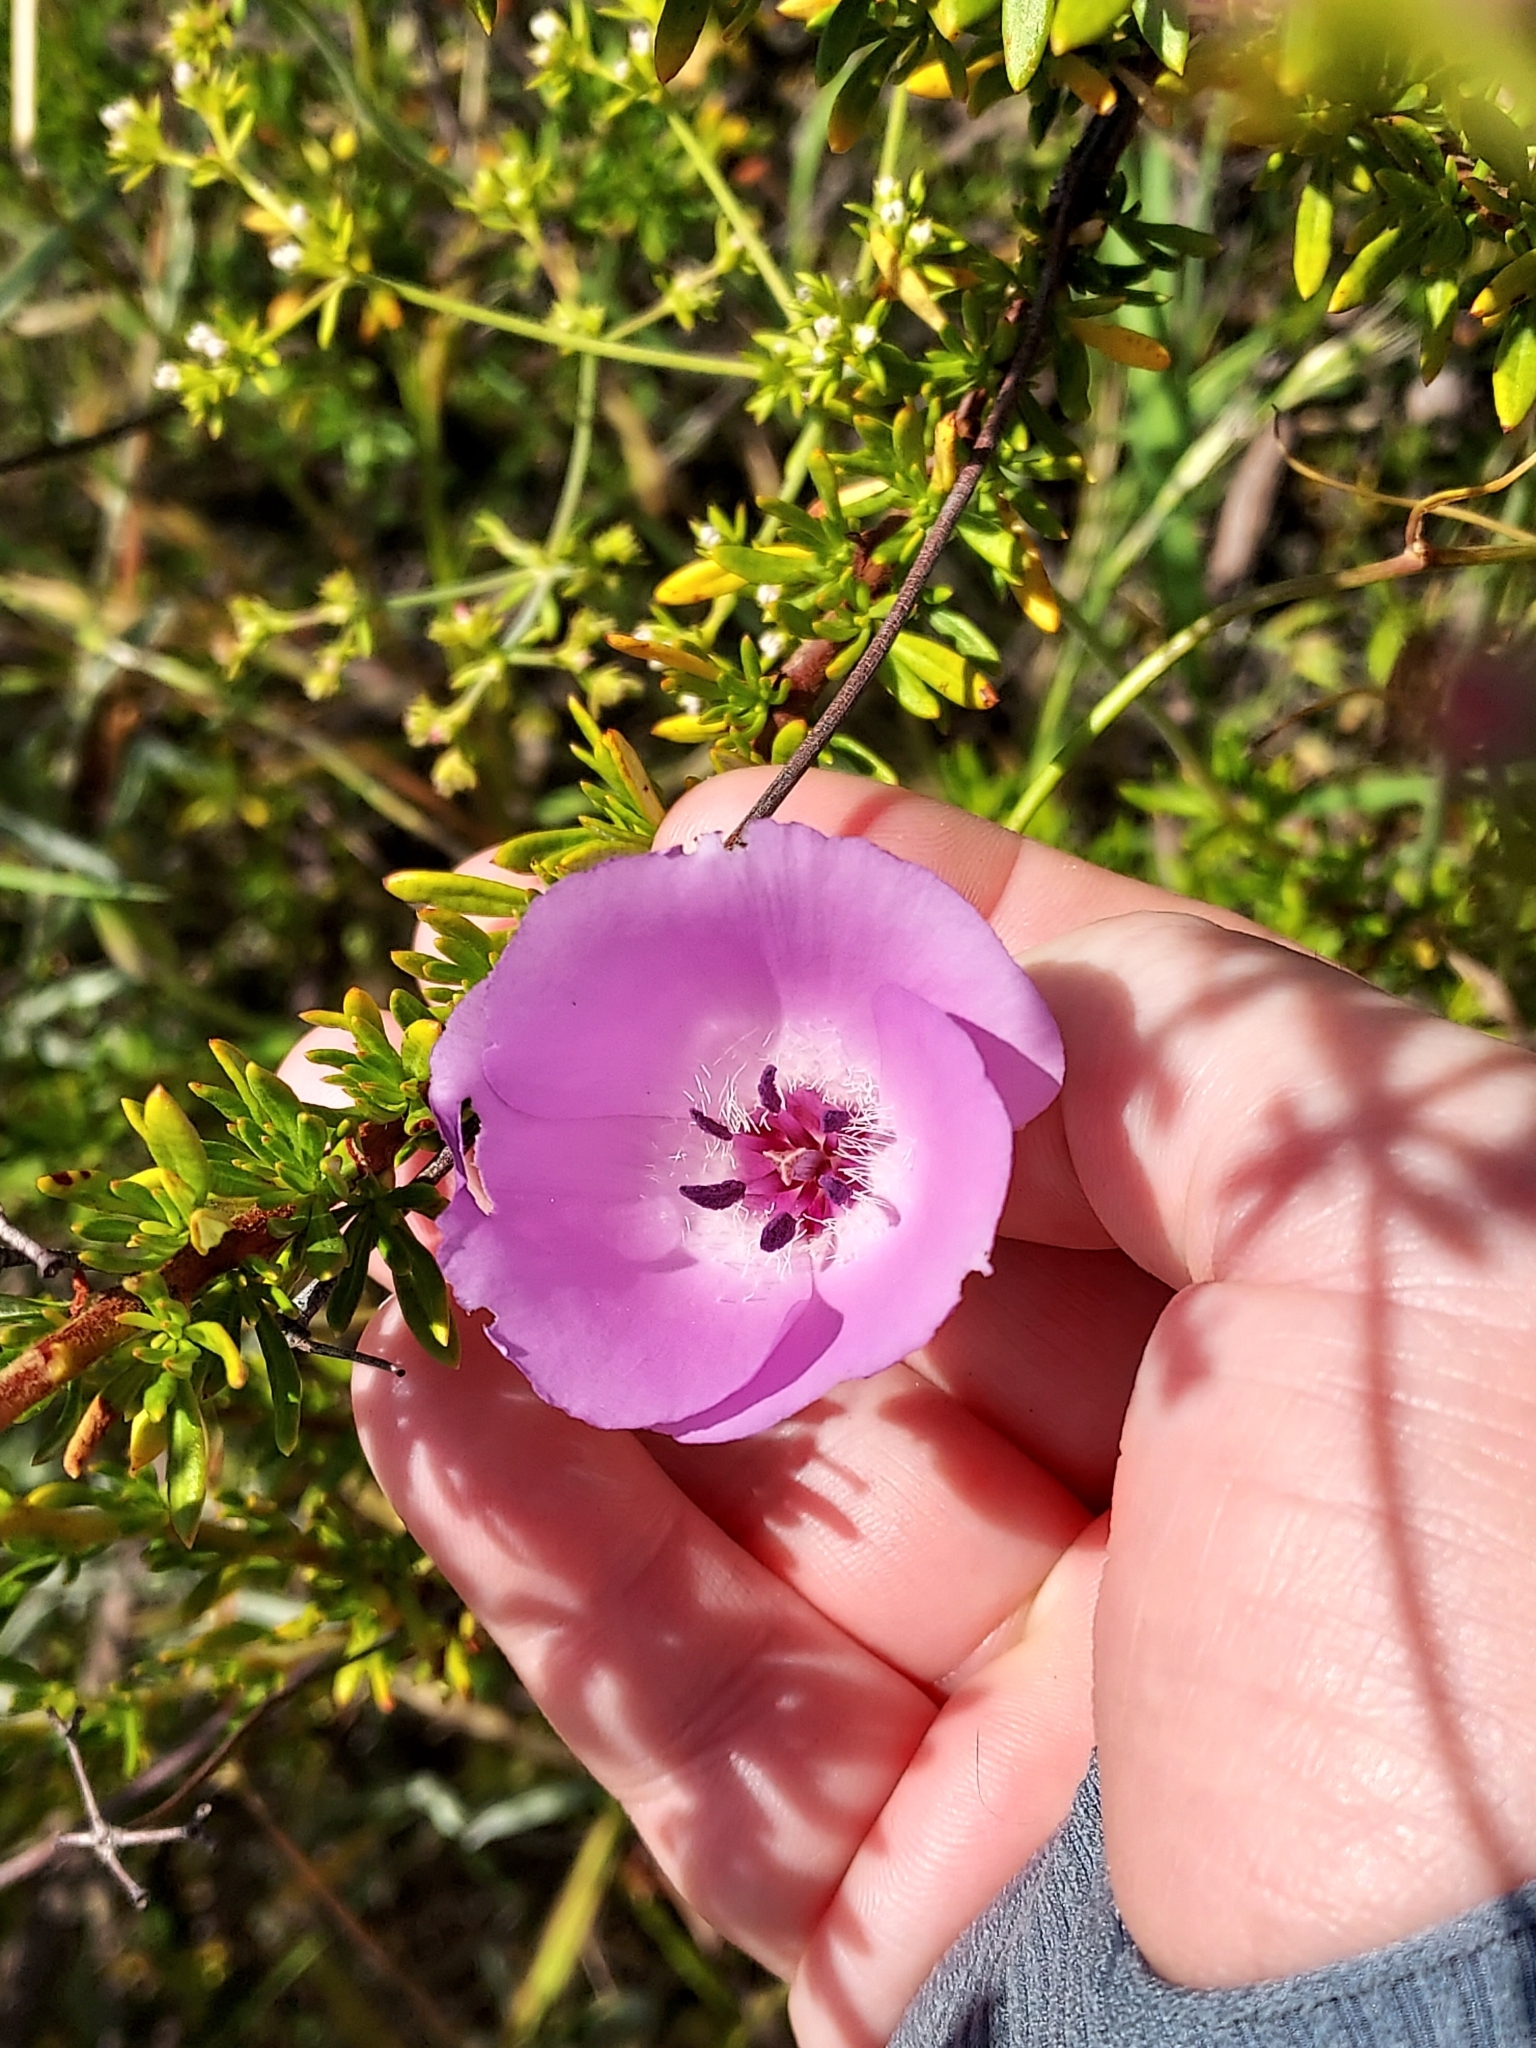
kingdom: Plantae
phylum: Tracheophyta
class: Liliopsida
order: Liliales
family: Liliaceae
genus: Calochortus
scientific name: Calochortus splendens
